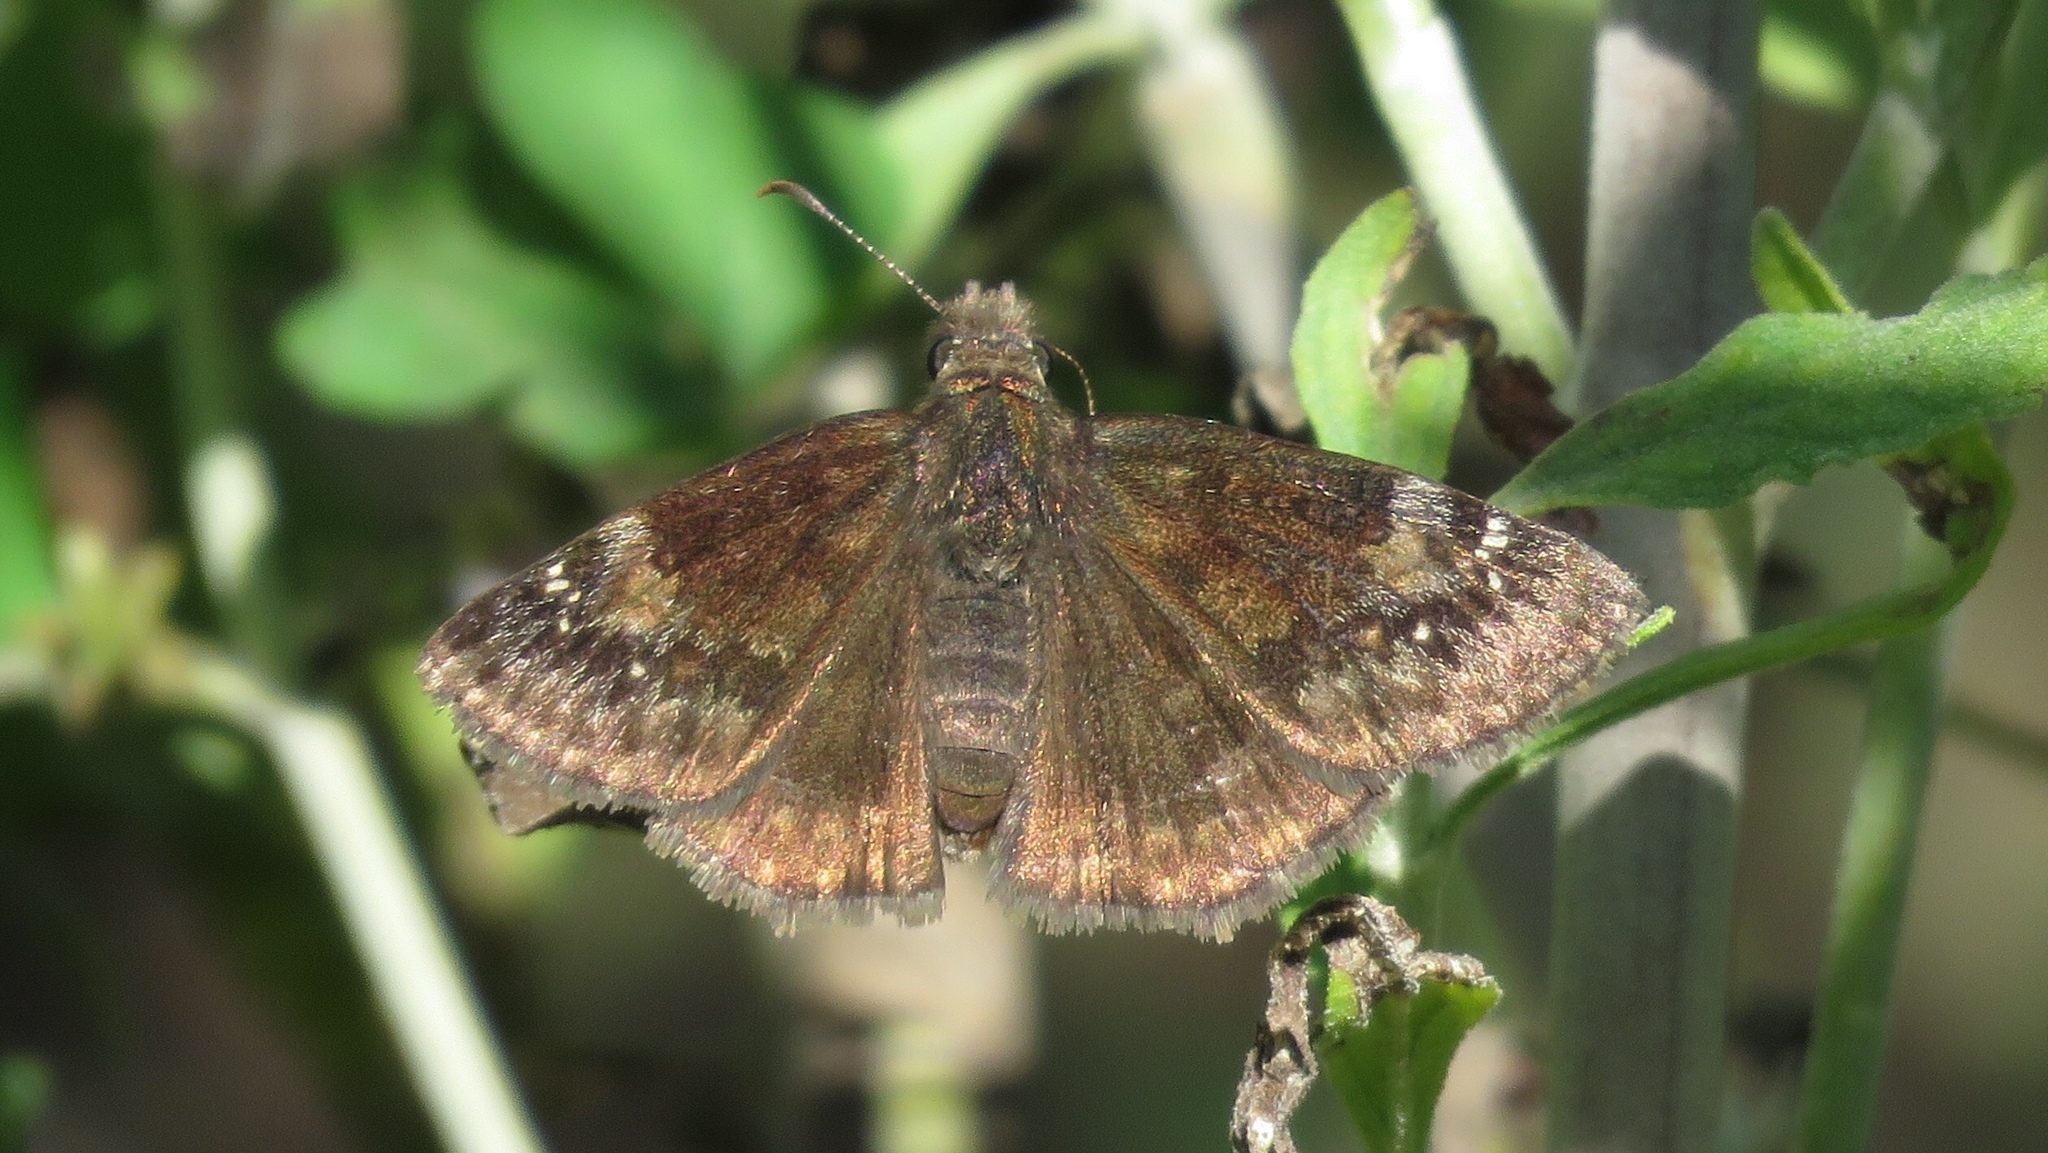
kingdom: Animalia
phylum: Arthropoda
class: Insecta
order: Lepidoptera
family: Hesperiidae
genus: Erynnis
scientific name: Erynnis baptisiae
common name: Wild indigo duskywing
